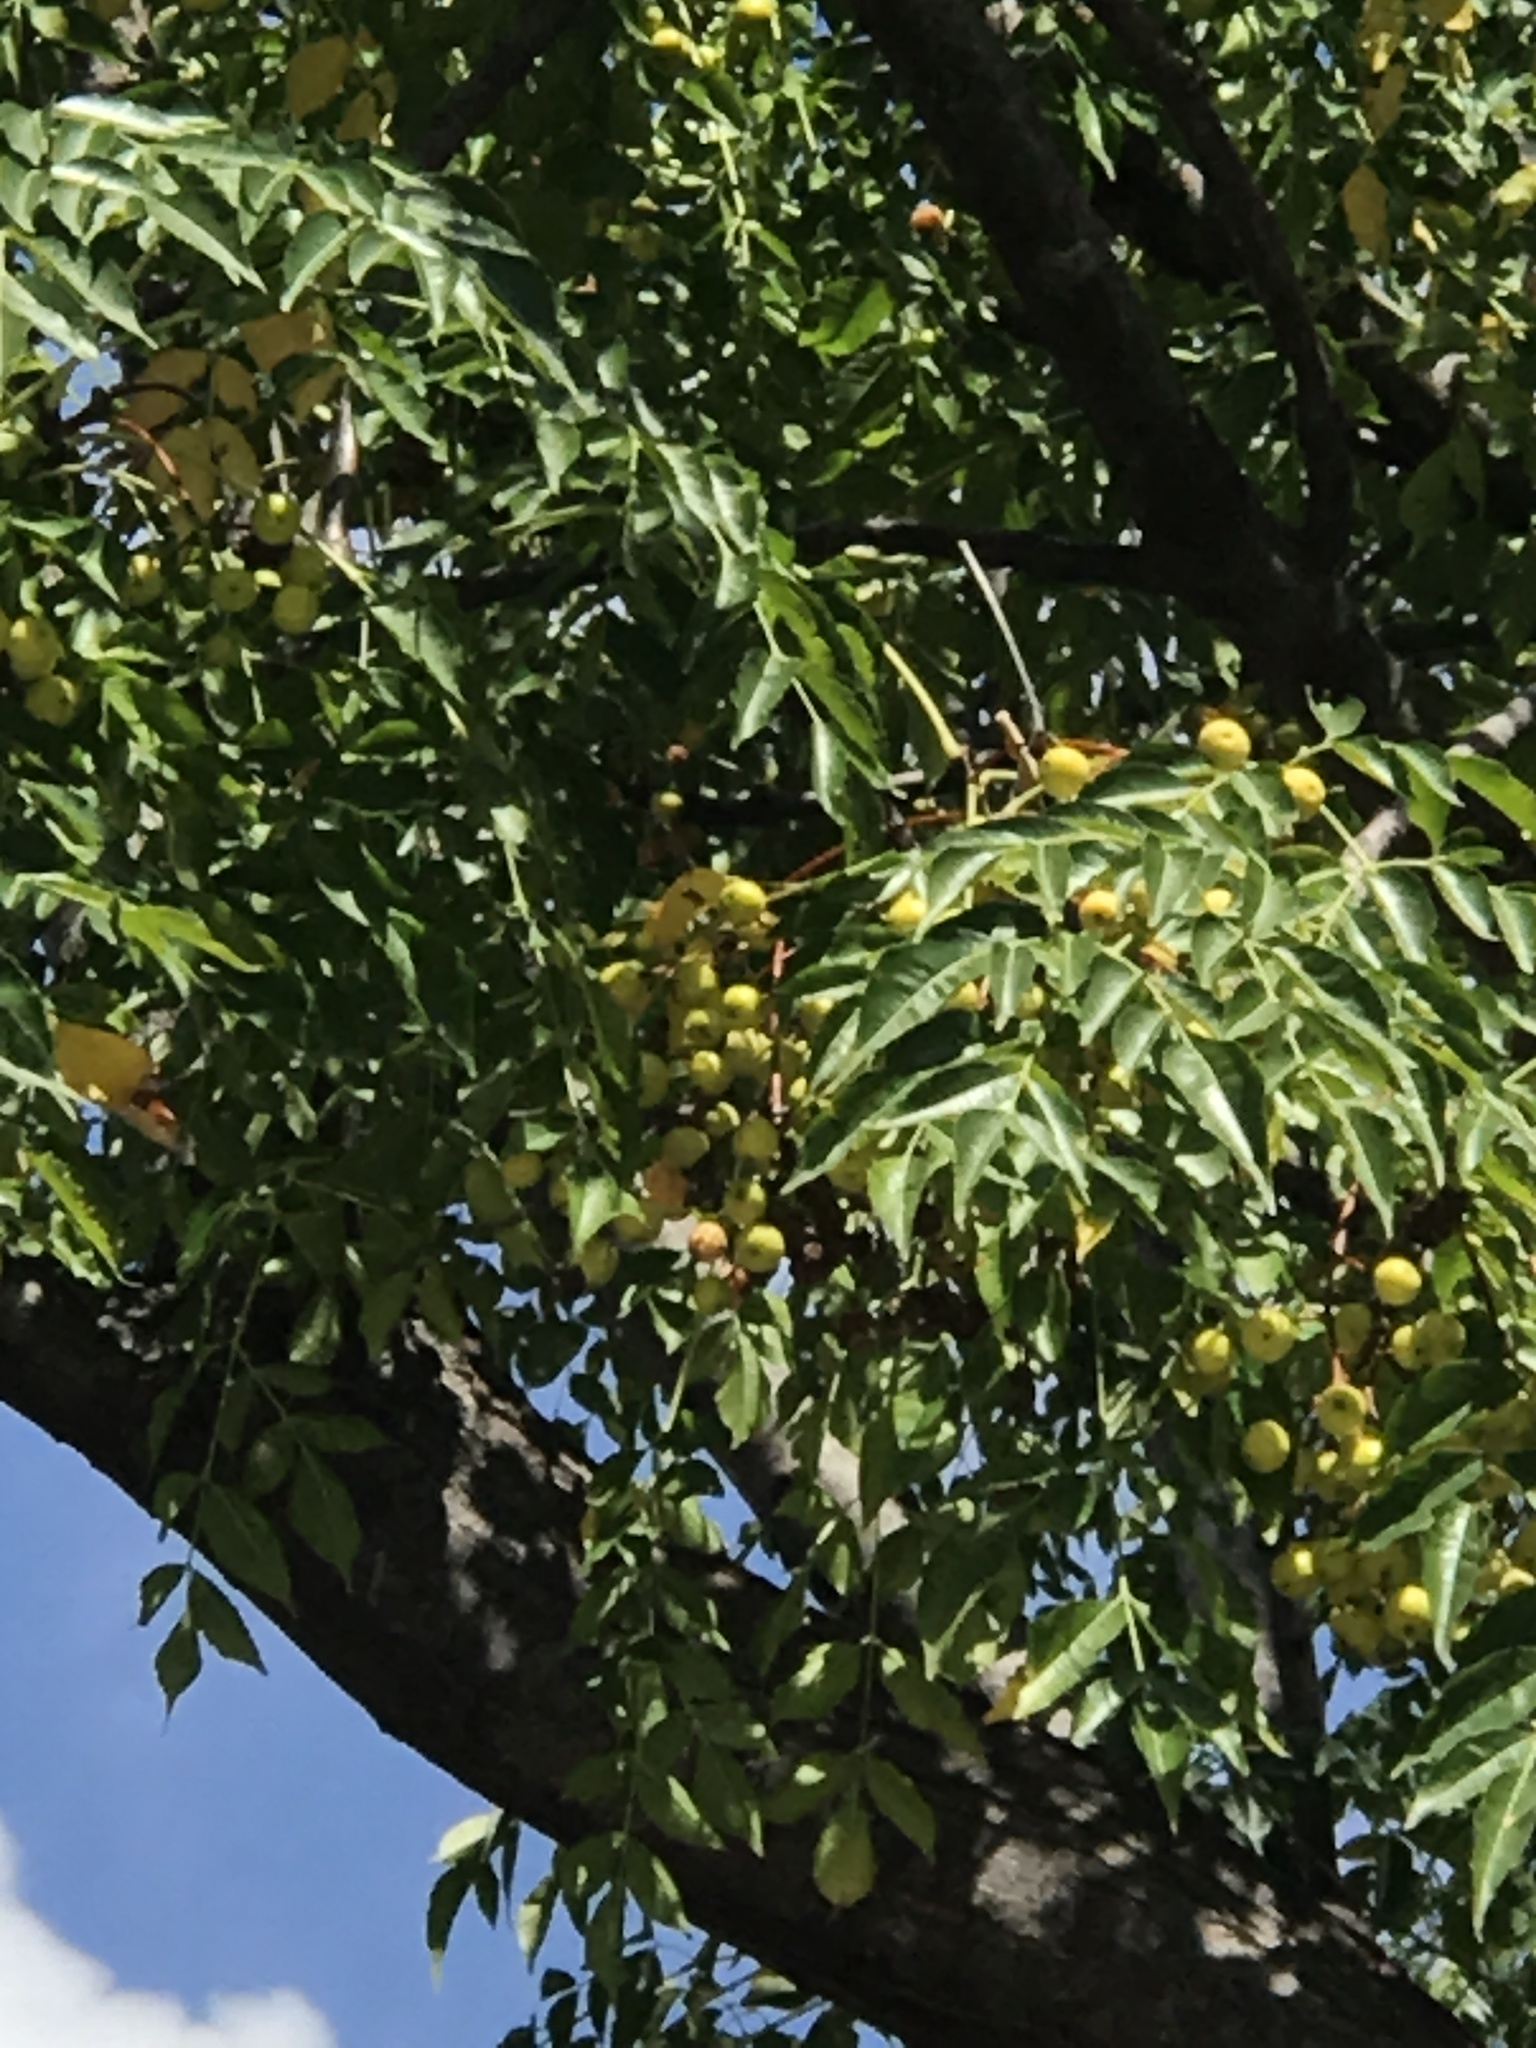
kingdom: Plantae
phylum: Tracheophyta
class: Magnoliopsida
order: Sapindales
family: Meliaceae
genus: Melia
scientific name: Melia azedarach
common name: Chinaberrytree
